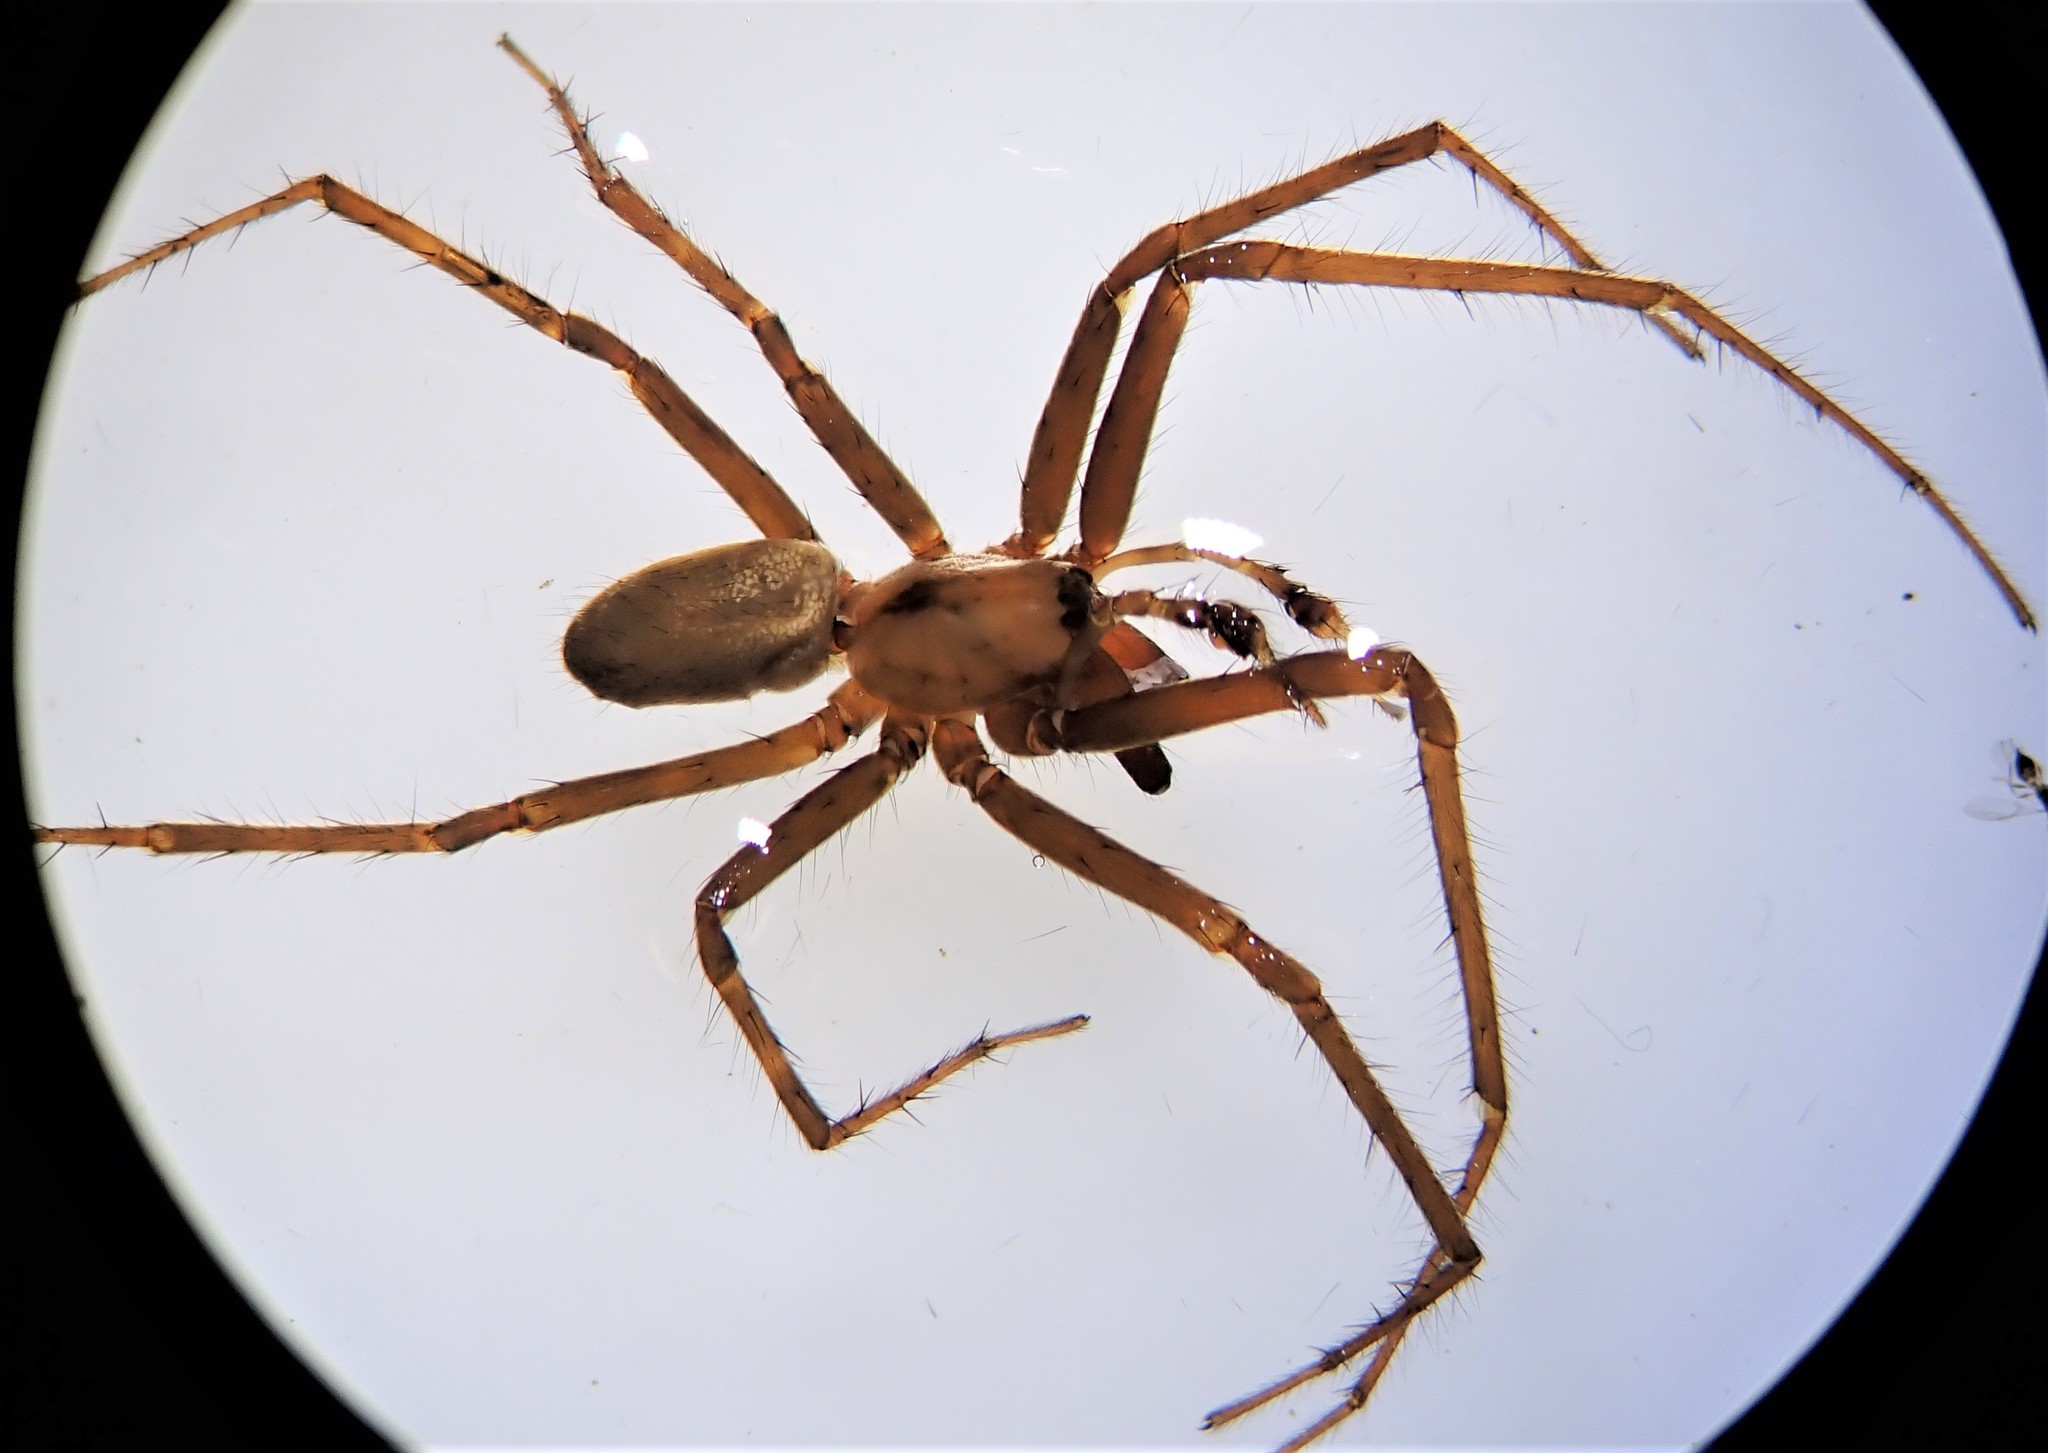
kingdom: Animalia
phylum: Arthropoda
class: Arachnida
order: Araneae
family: Desidae
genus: Cambridgea
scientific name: Cambridgea ambigua
